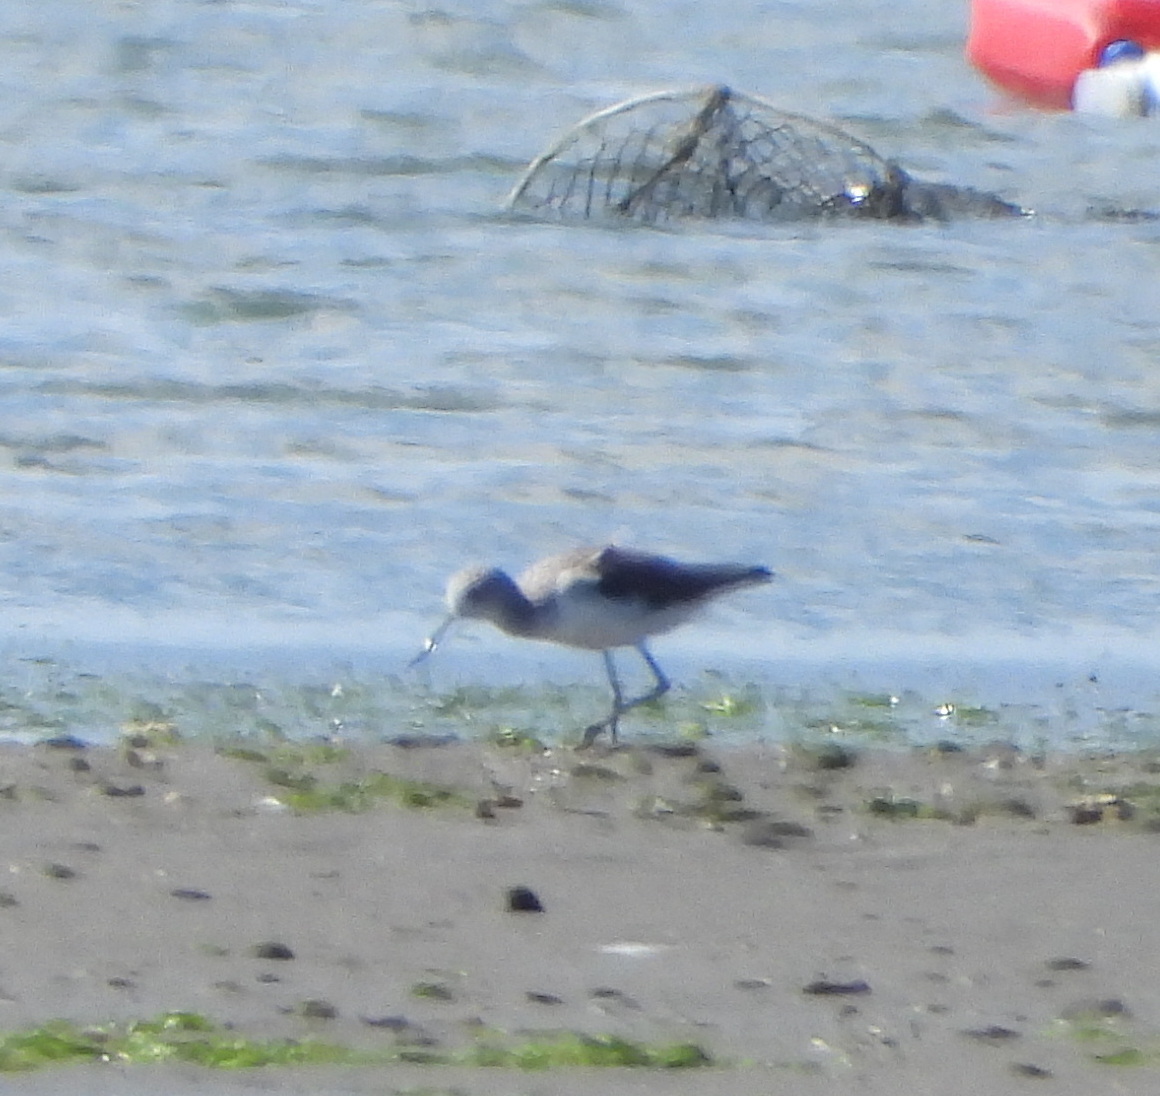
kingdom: Animalia
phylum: Chordata
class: Aves
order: Charadriiformes
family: Recurvirostridae
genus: Himantopus
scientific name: Himantopus himantopus
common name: Black-winged stilt
